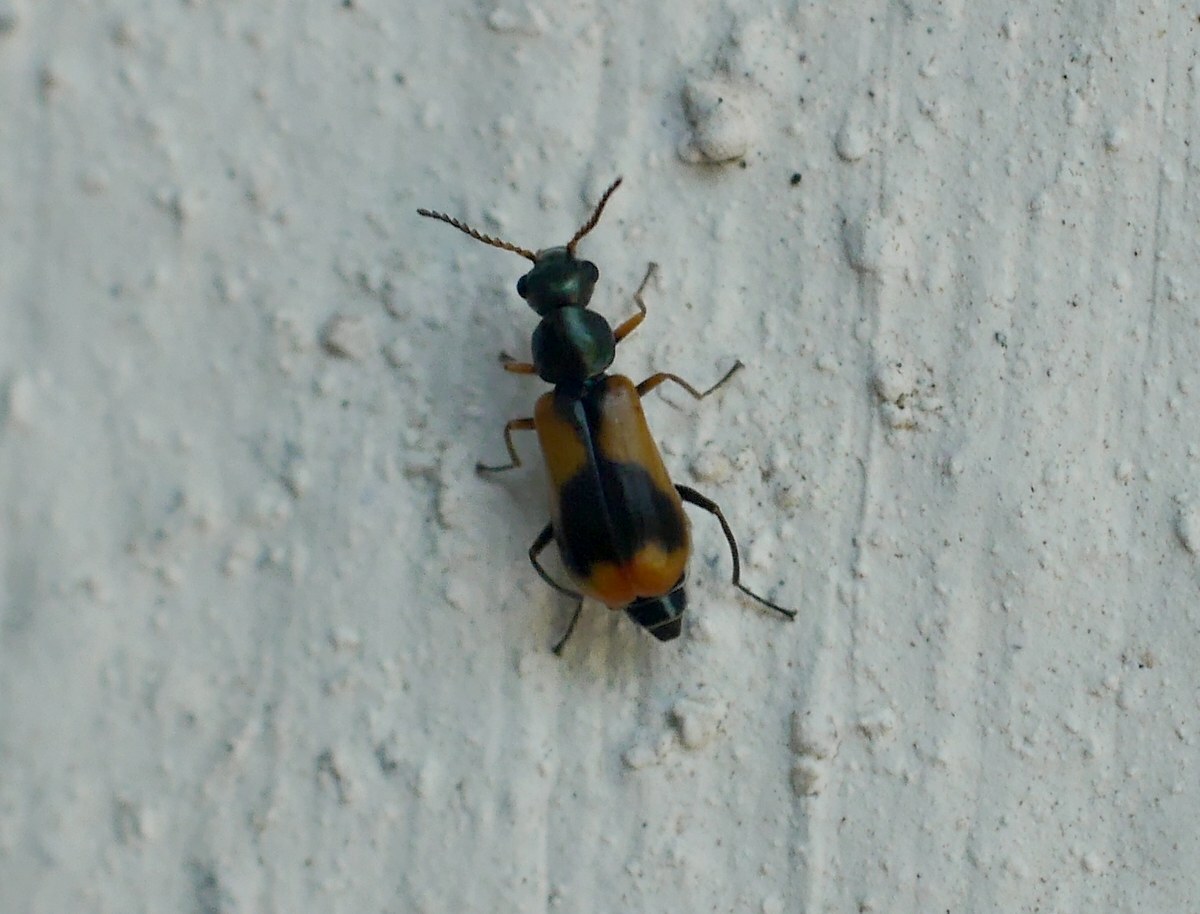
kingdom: Animalia
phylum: Arthropoda
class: Insecta
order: Coleoptera
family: Melyridae
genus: Anthocomus
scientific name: Anthocomus equestris
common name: Black-banded soft-winged flower beetle
